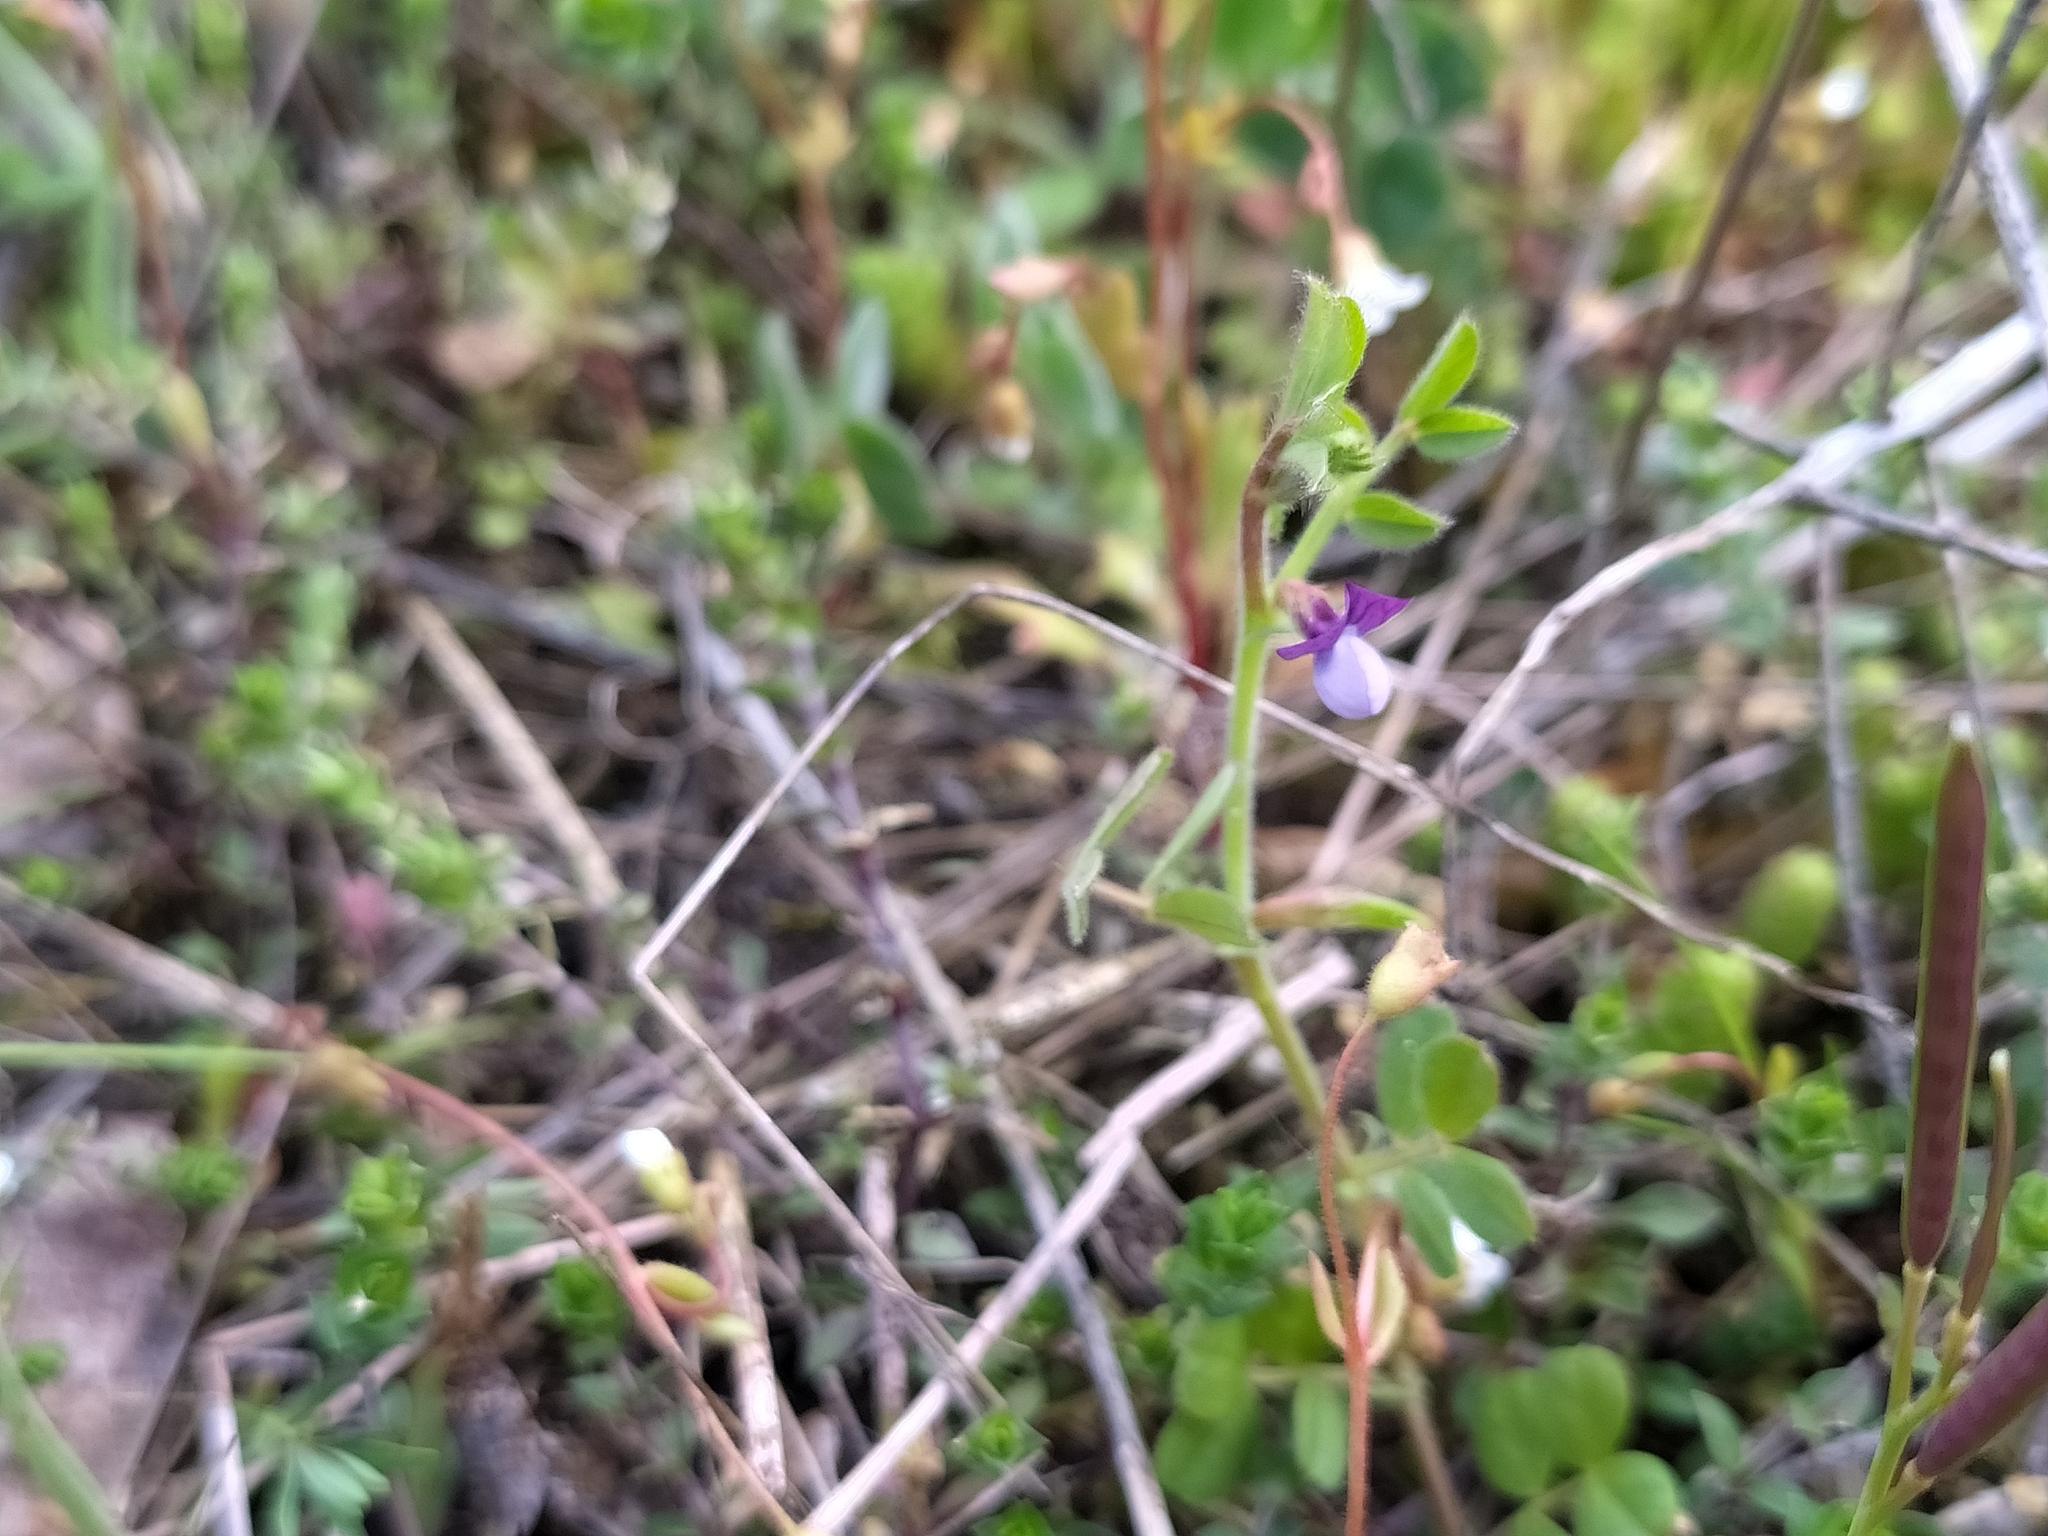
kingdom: Plantae
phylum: Tracheophyta
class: Magnoliopsida
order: Fabales
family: Fabaceae
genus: Vicia
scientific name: Vicia lathyroides
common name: Spring vetch
